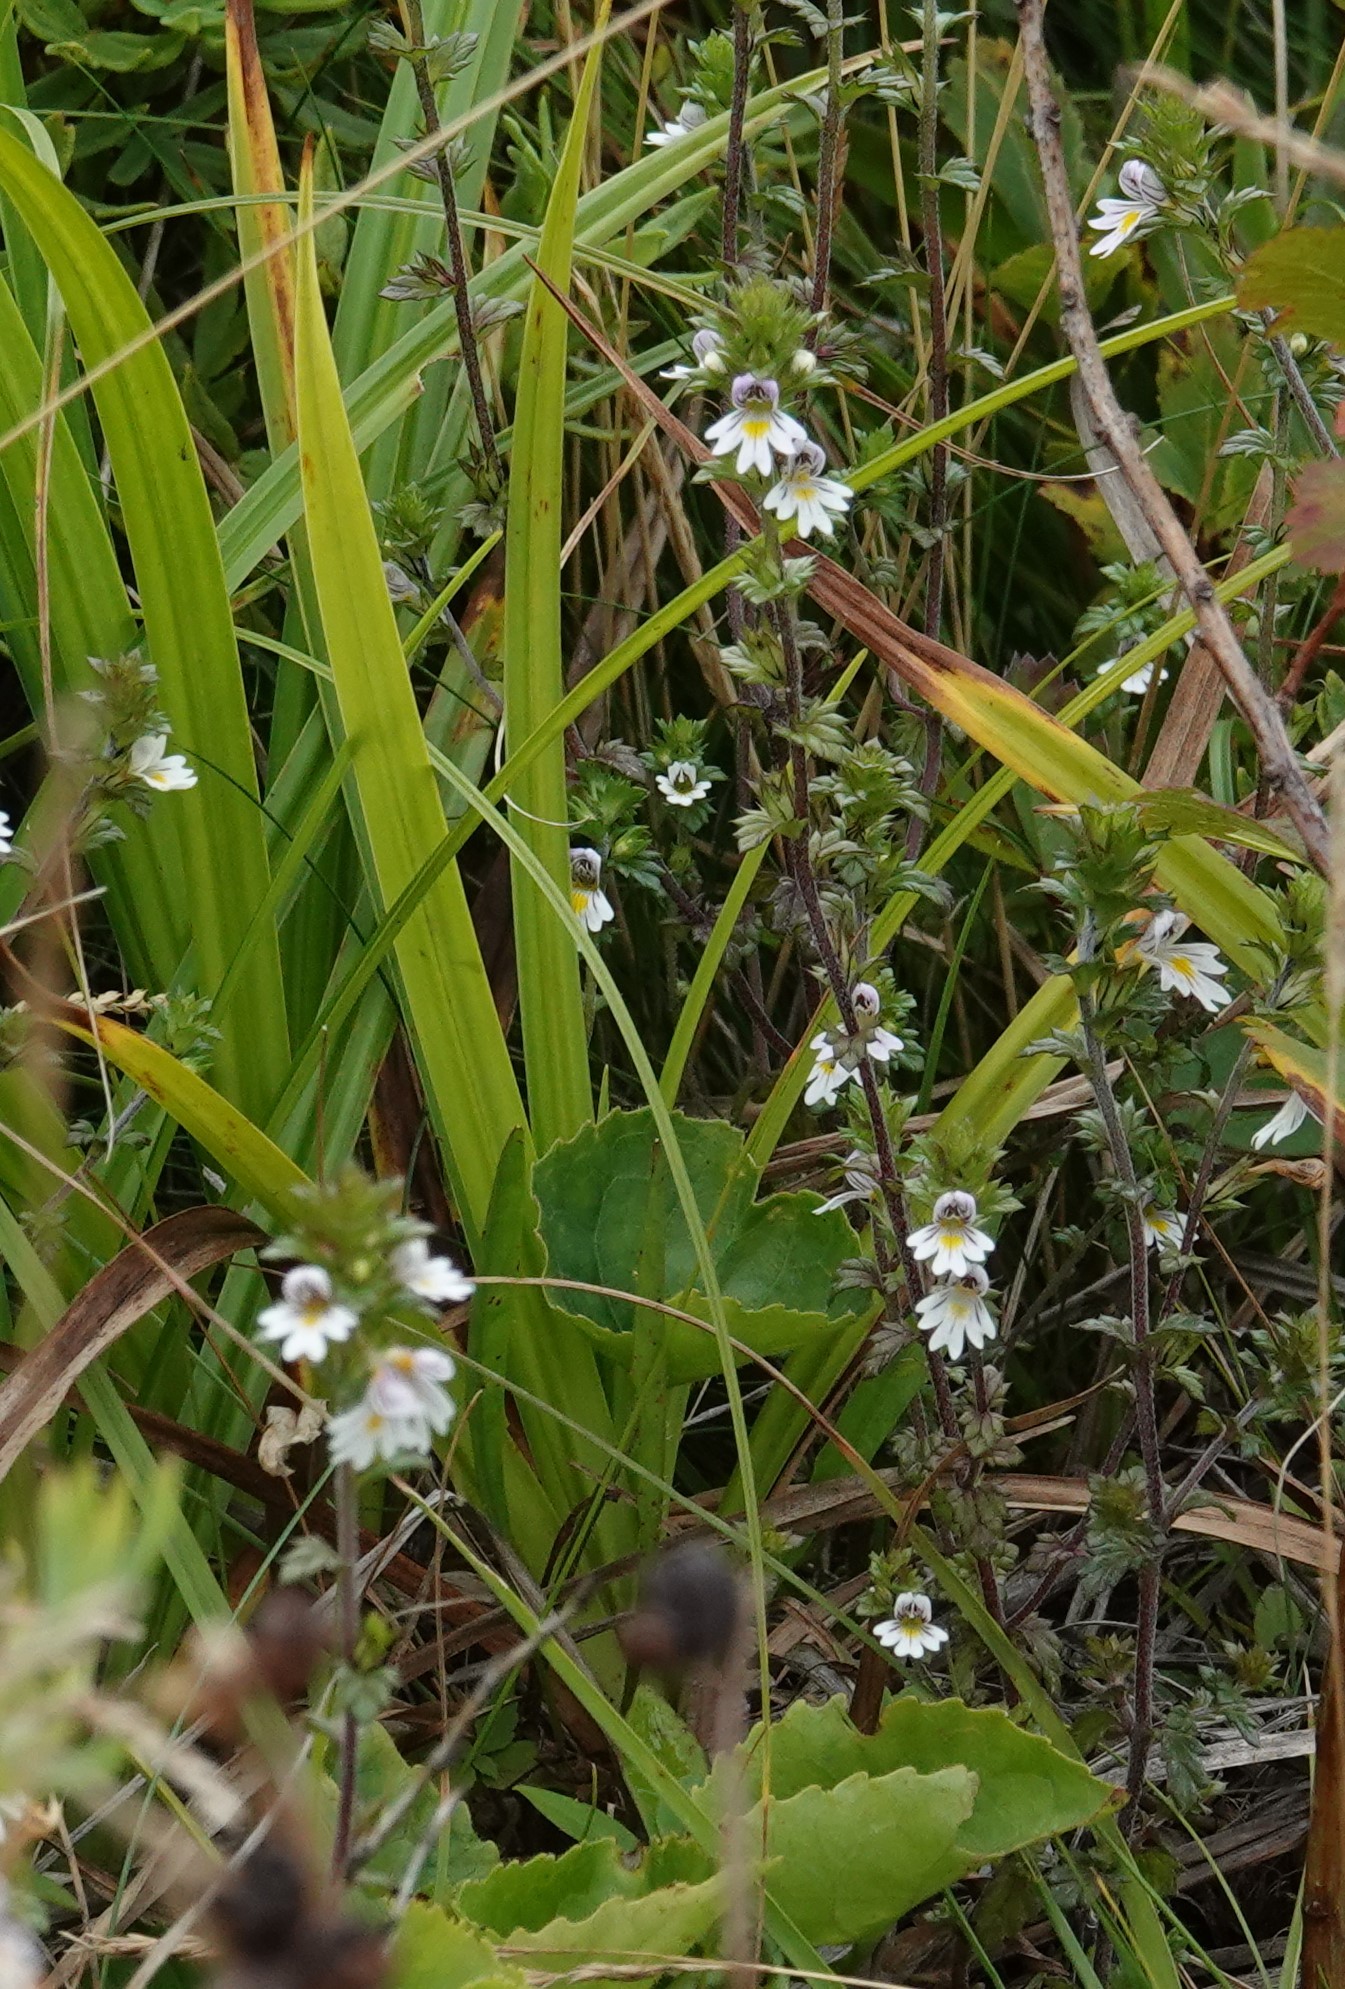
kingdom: Plantae
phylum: Tracheophyta
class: Magnoliopsida
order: Lamiales
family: Orobanchaceae
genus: Euphrasia
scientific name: Euphrasia nemorosa
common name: Common eyebright
